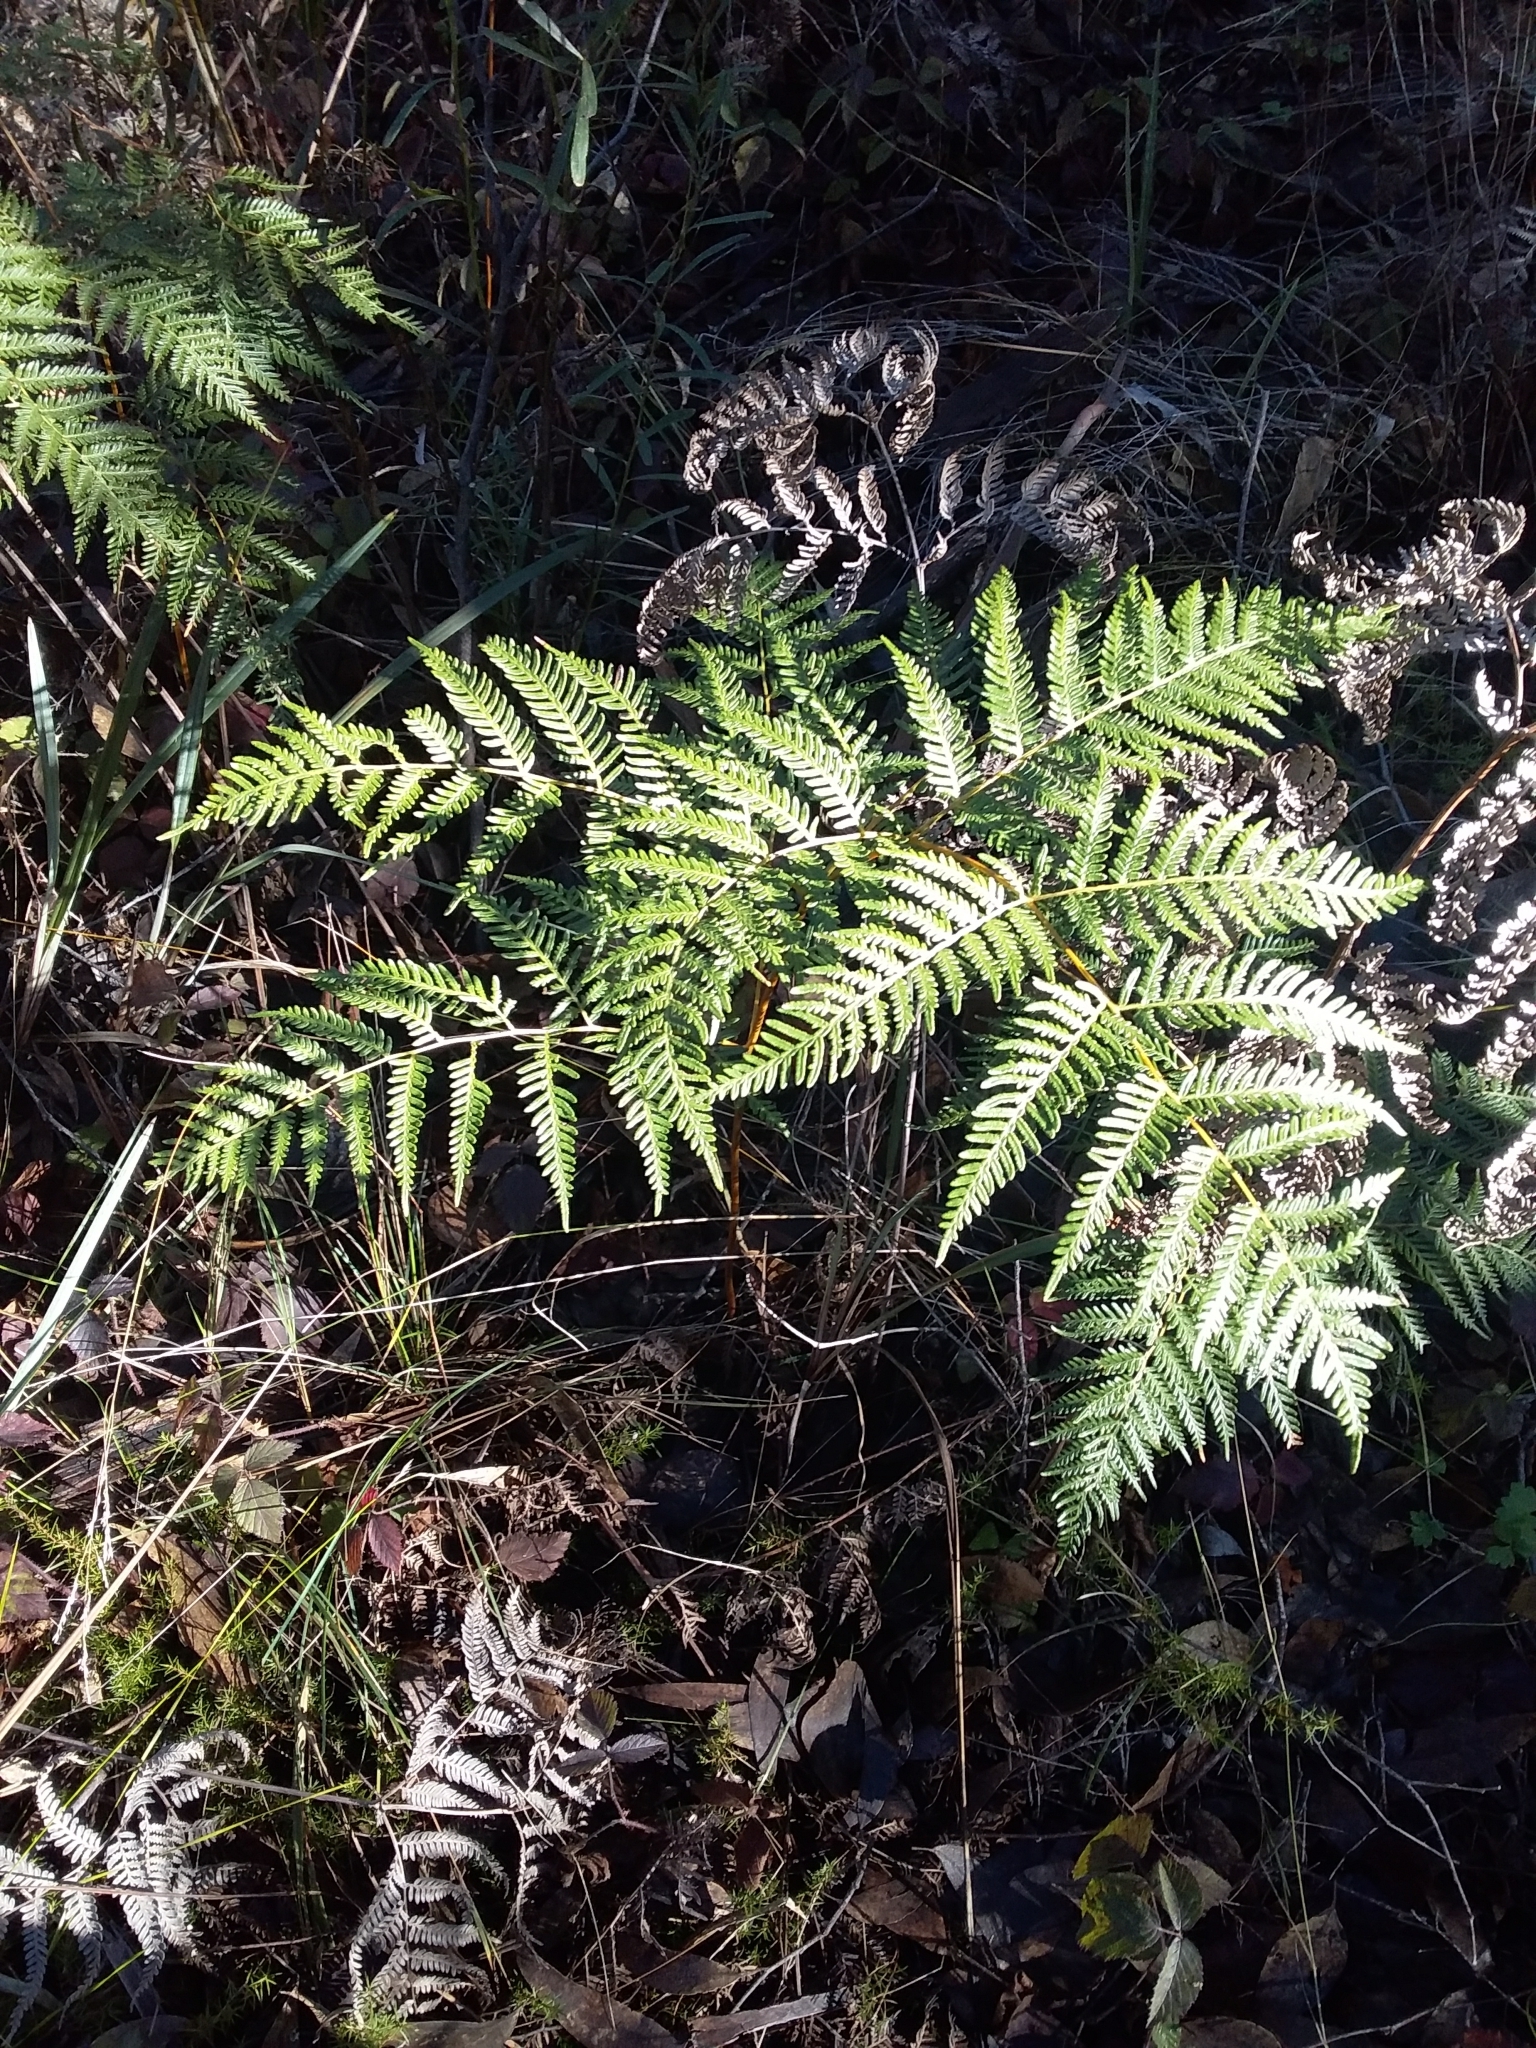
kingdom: Plantae
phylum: Tracheophyta
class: Polypodiopsida
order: Polypodiales
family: Dennstaedtiaceae
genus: Pteridium
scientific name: Pteridium esculentum
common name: Bracken fern
